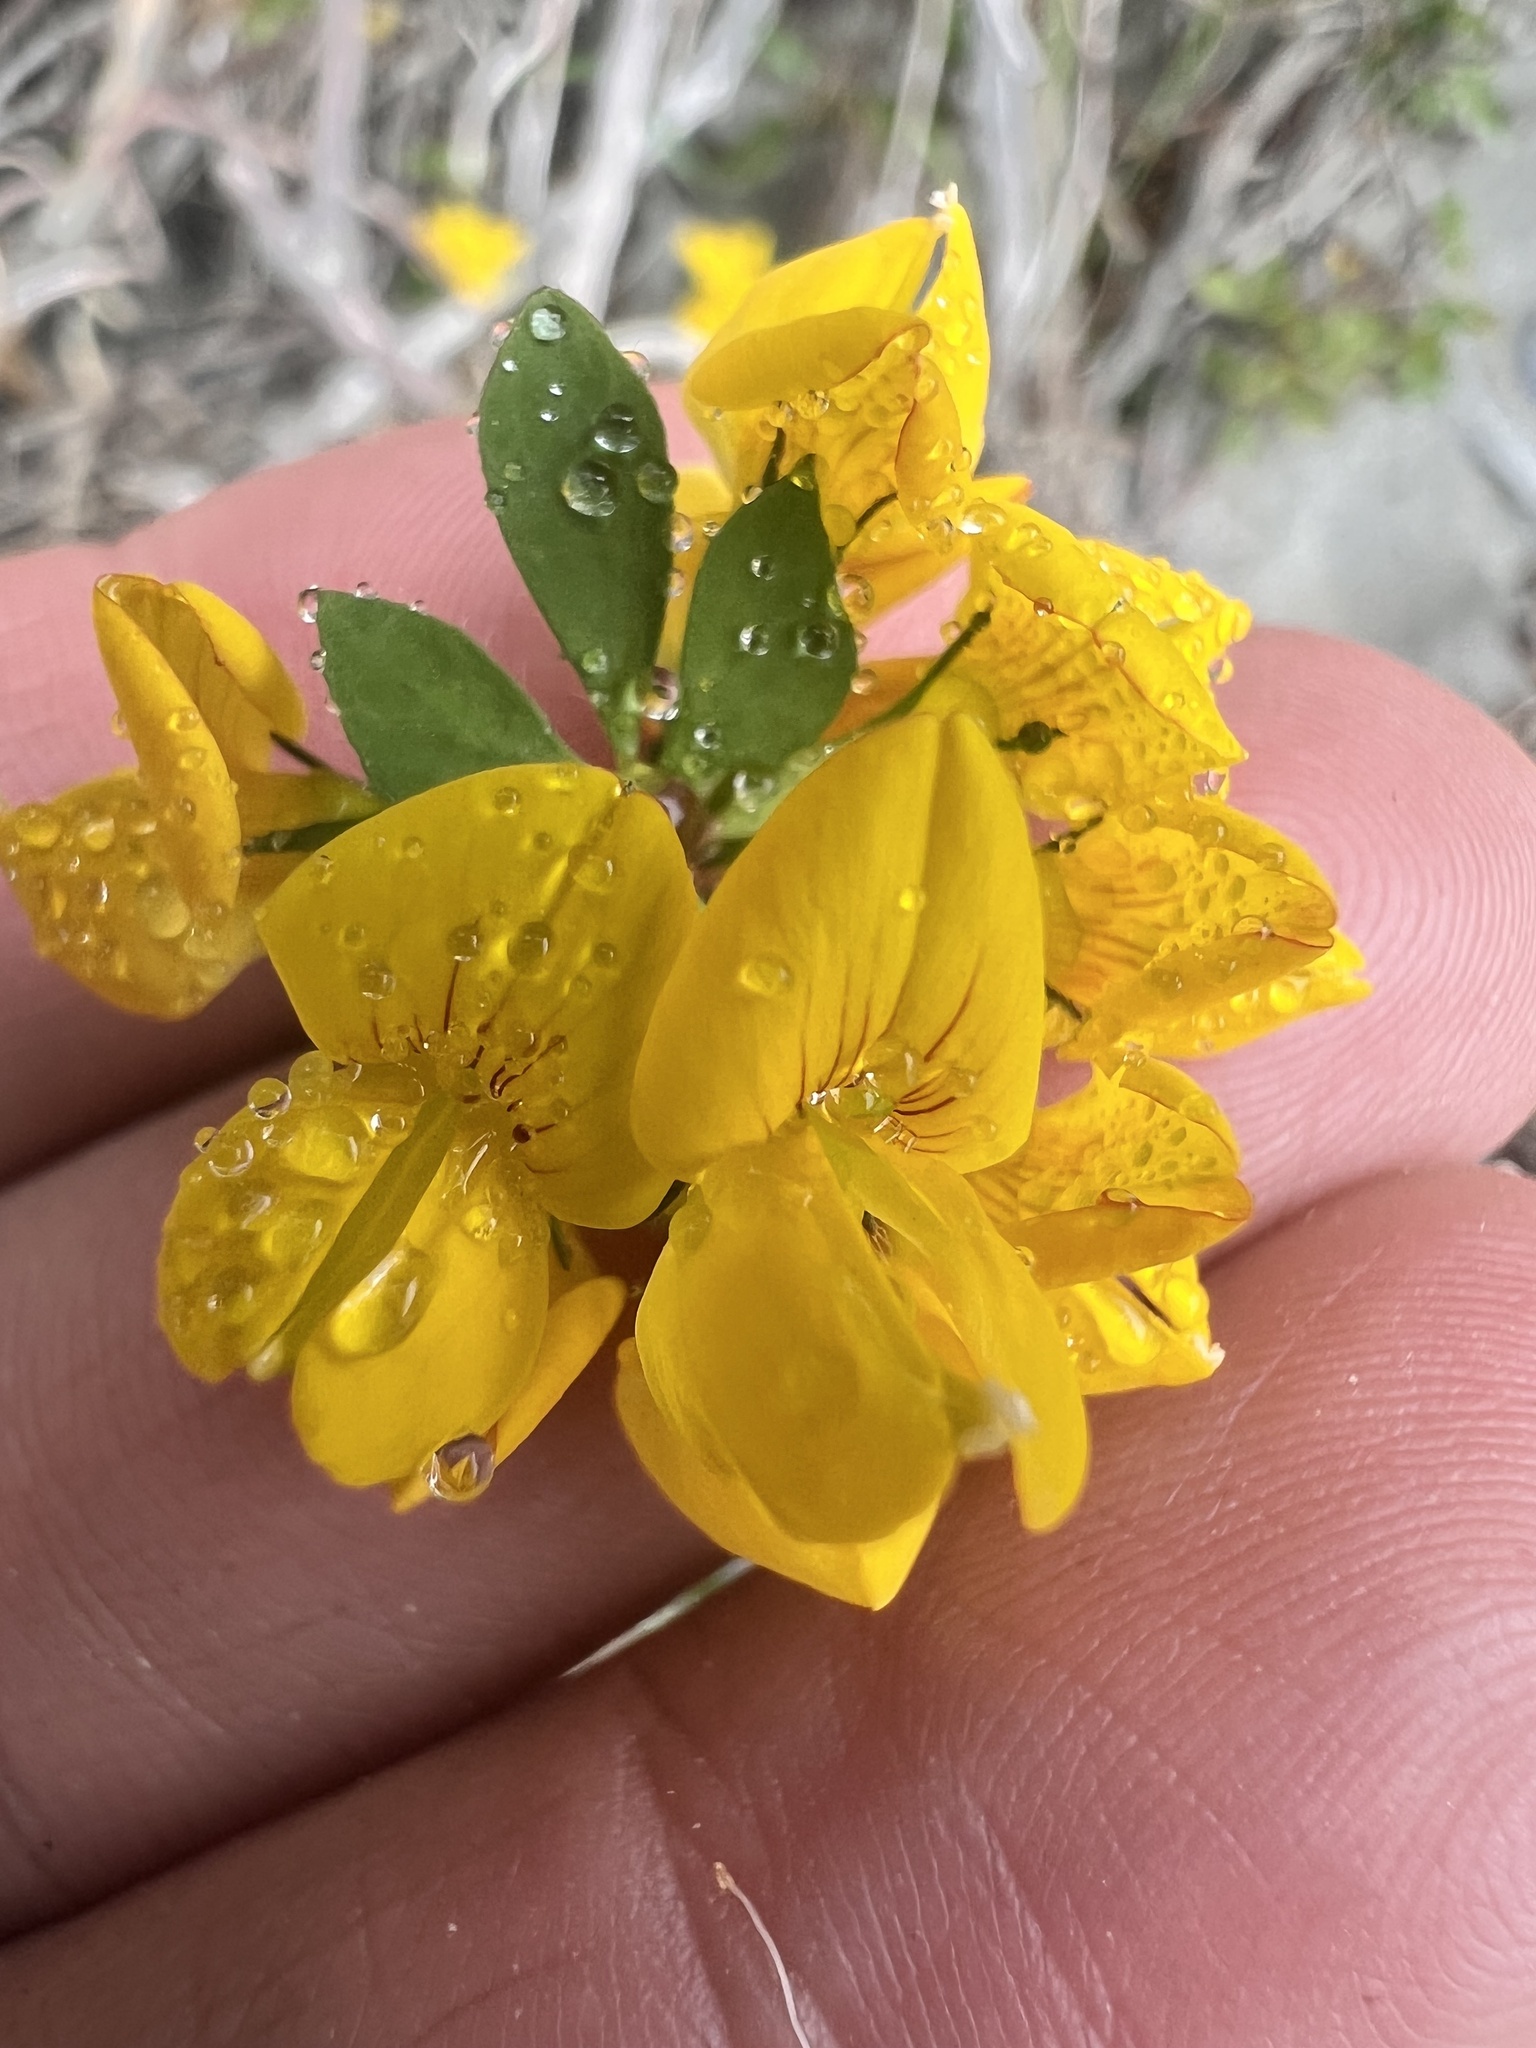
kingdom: Plantae
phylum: Tracheophyta
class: Magnoliopsida
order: Fabales
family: Fabaceae
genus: Lotus
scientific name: Lotus pedunculatus
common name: Greater birdsfoot-trefoil
